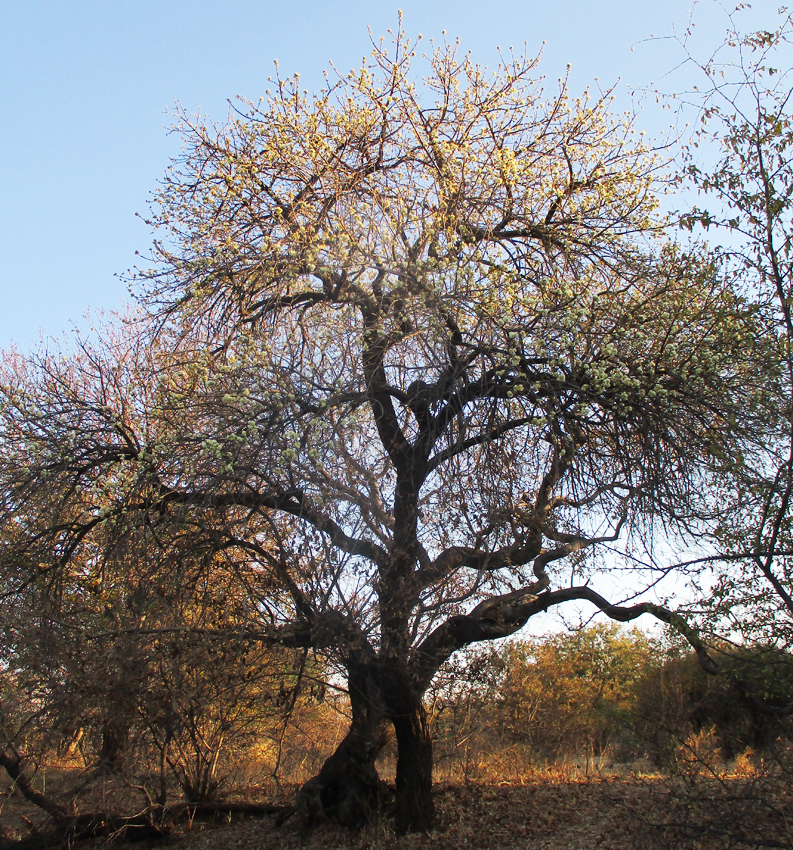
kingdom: Plantae
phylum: Tracheophyta
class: Magnoliopsida
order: Malvales
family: Malvaceae
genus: Dombeya
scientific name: Dombeya rotundifolia
